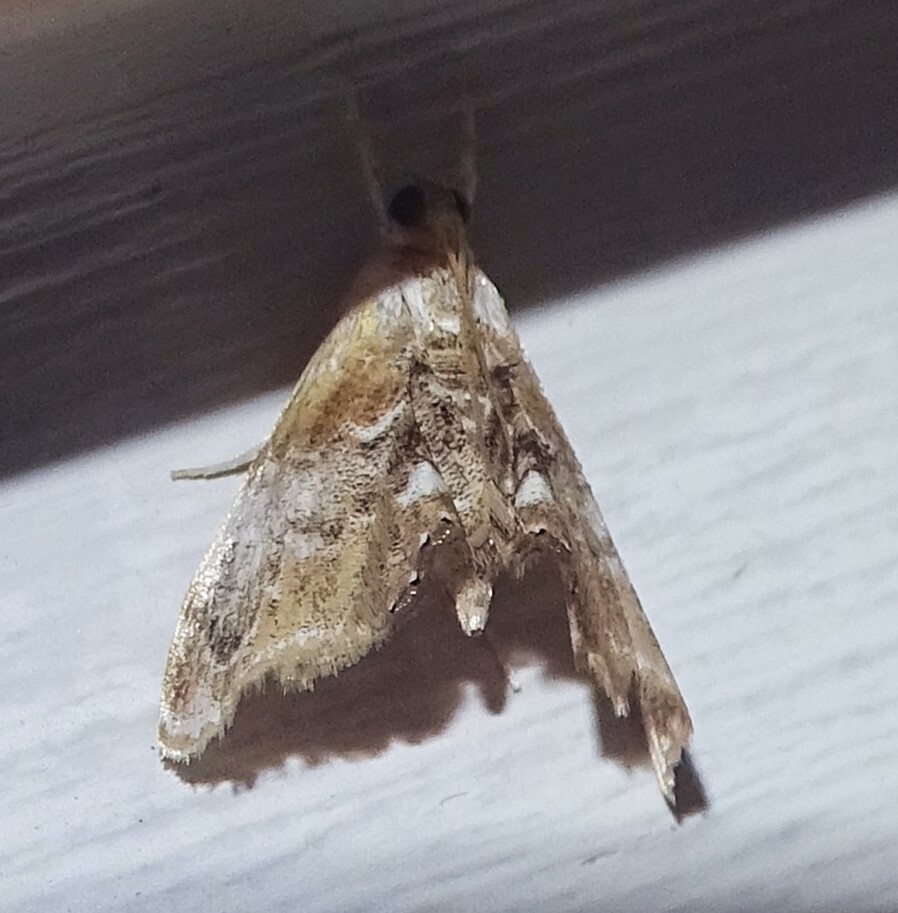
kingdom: Animalia
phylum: Arthropoda
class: Insecta
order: Lepidoptera
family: Crambidae
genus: Dicymolomia
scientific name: Dicymolomia julianalis
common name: Julia's dicymolomia moth
